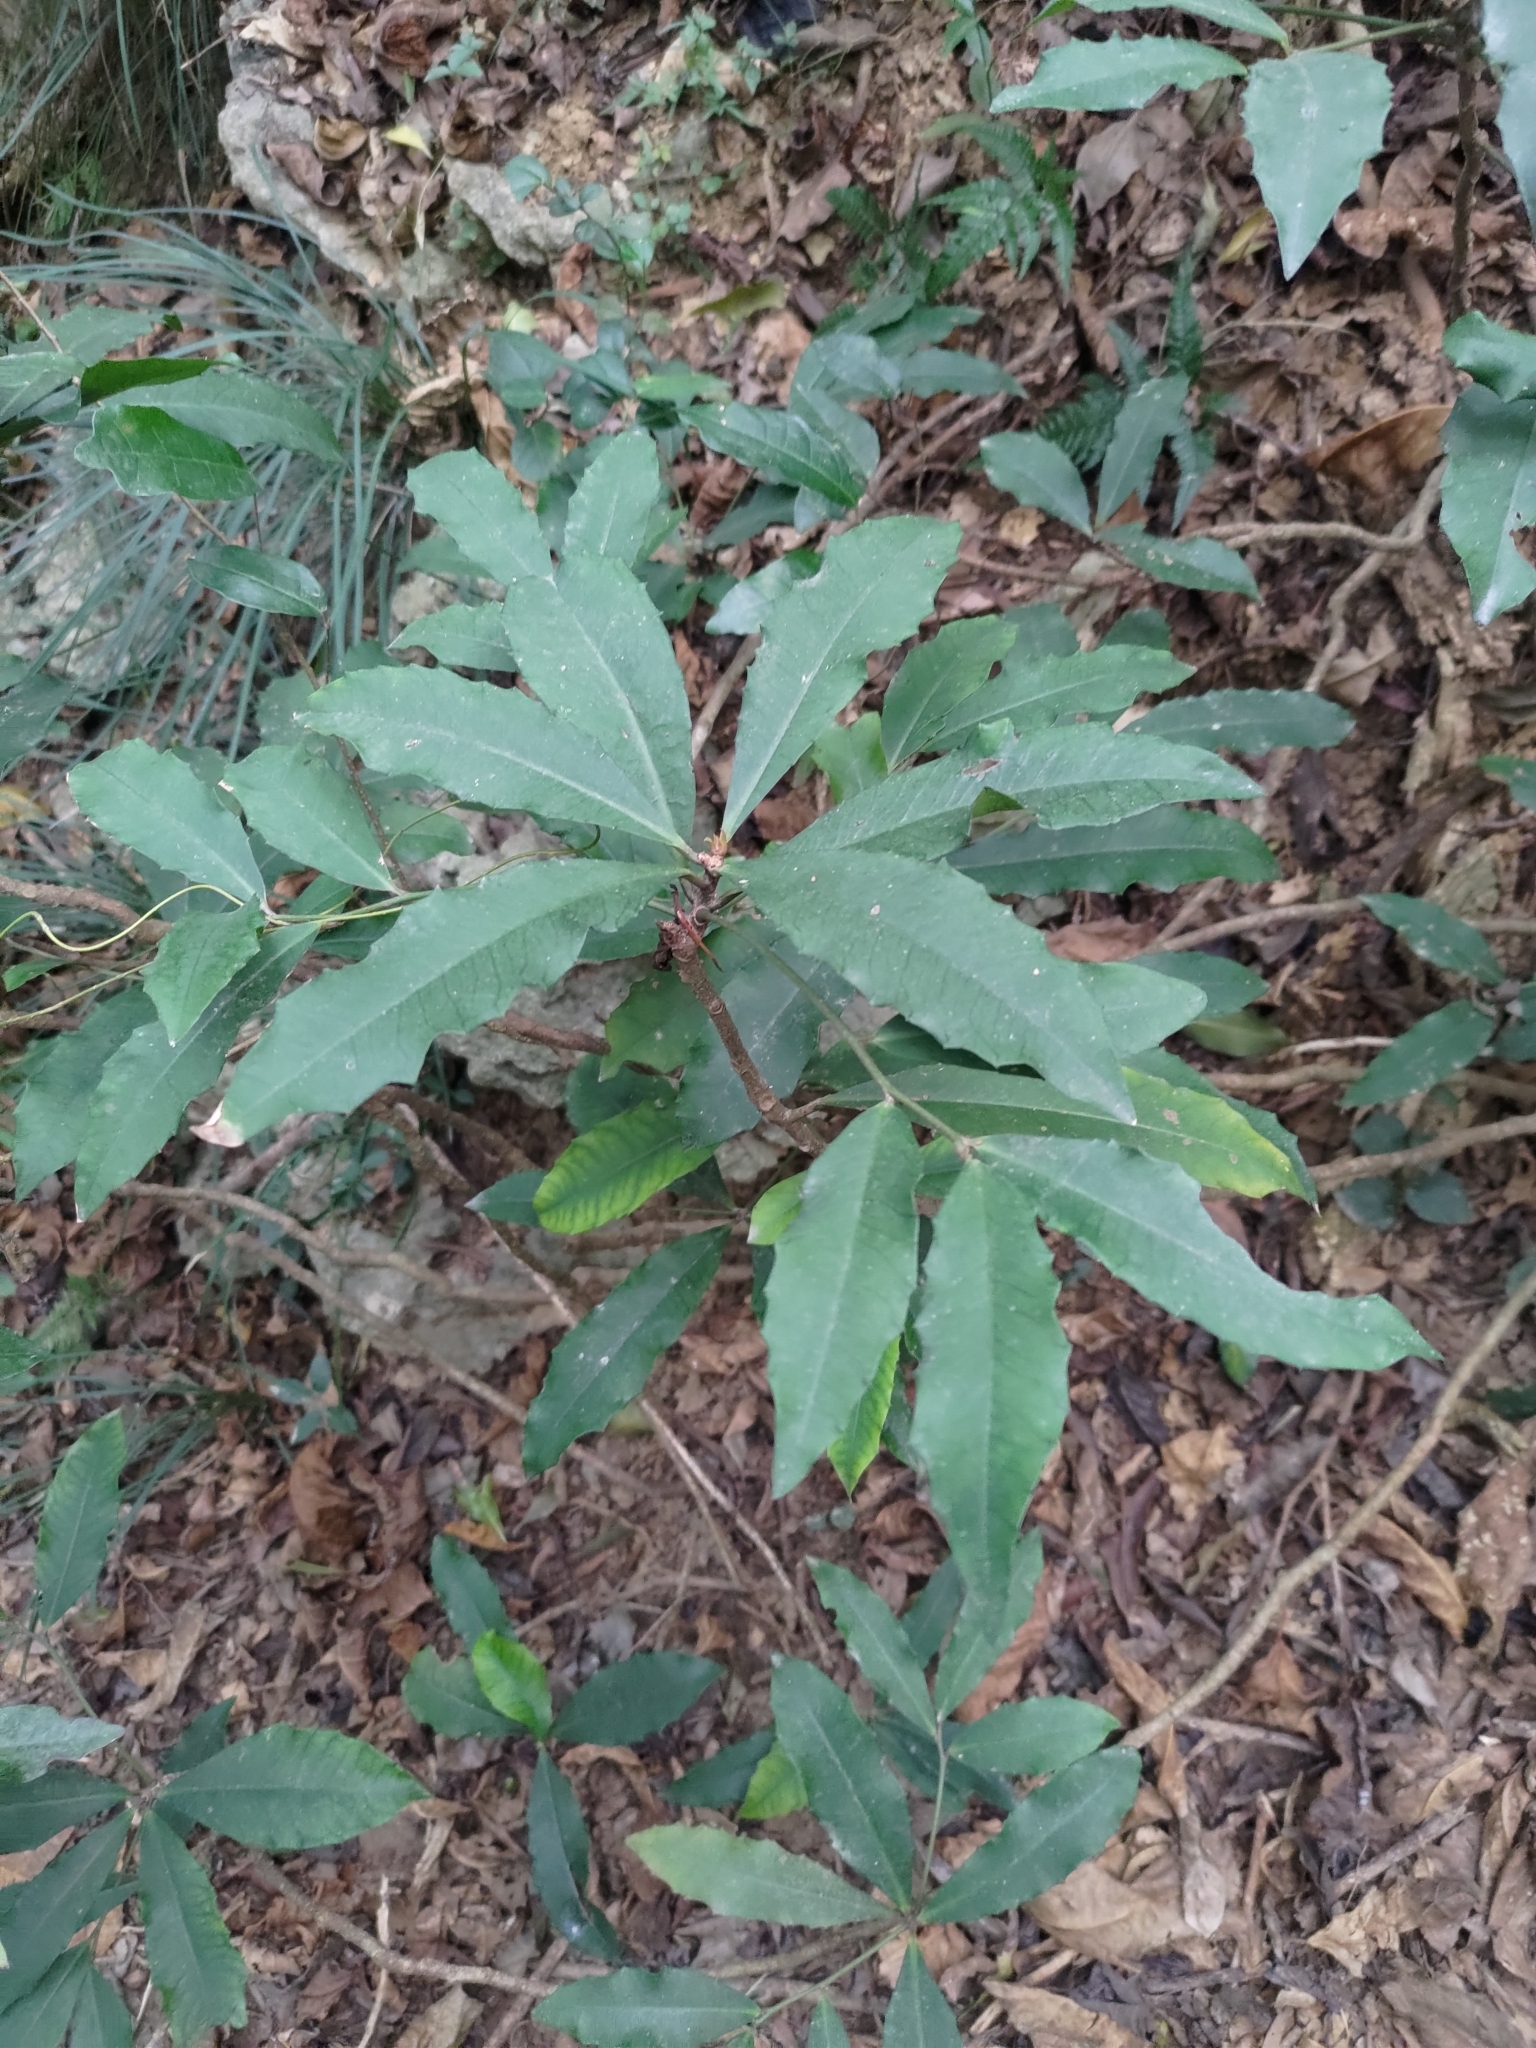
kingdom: Plantae
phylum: Tracheophyta
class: Magnoliopsida
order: Ericales
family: Primulaceae
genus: Ardisia
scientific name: Ardisia cornudentata
